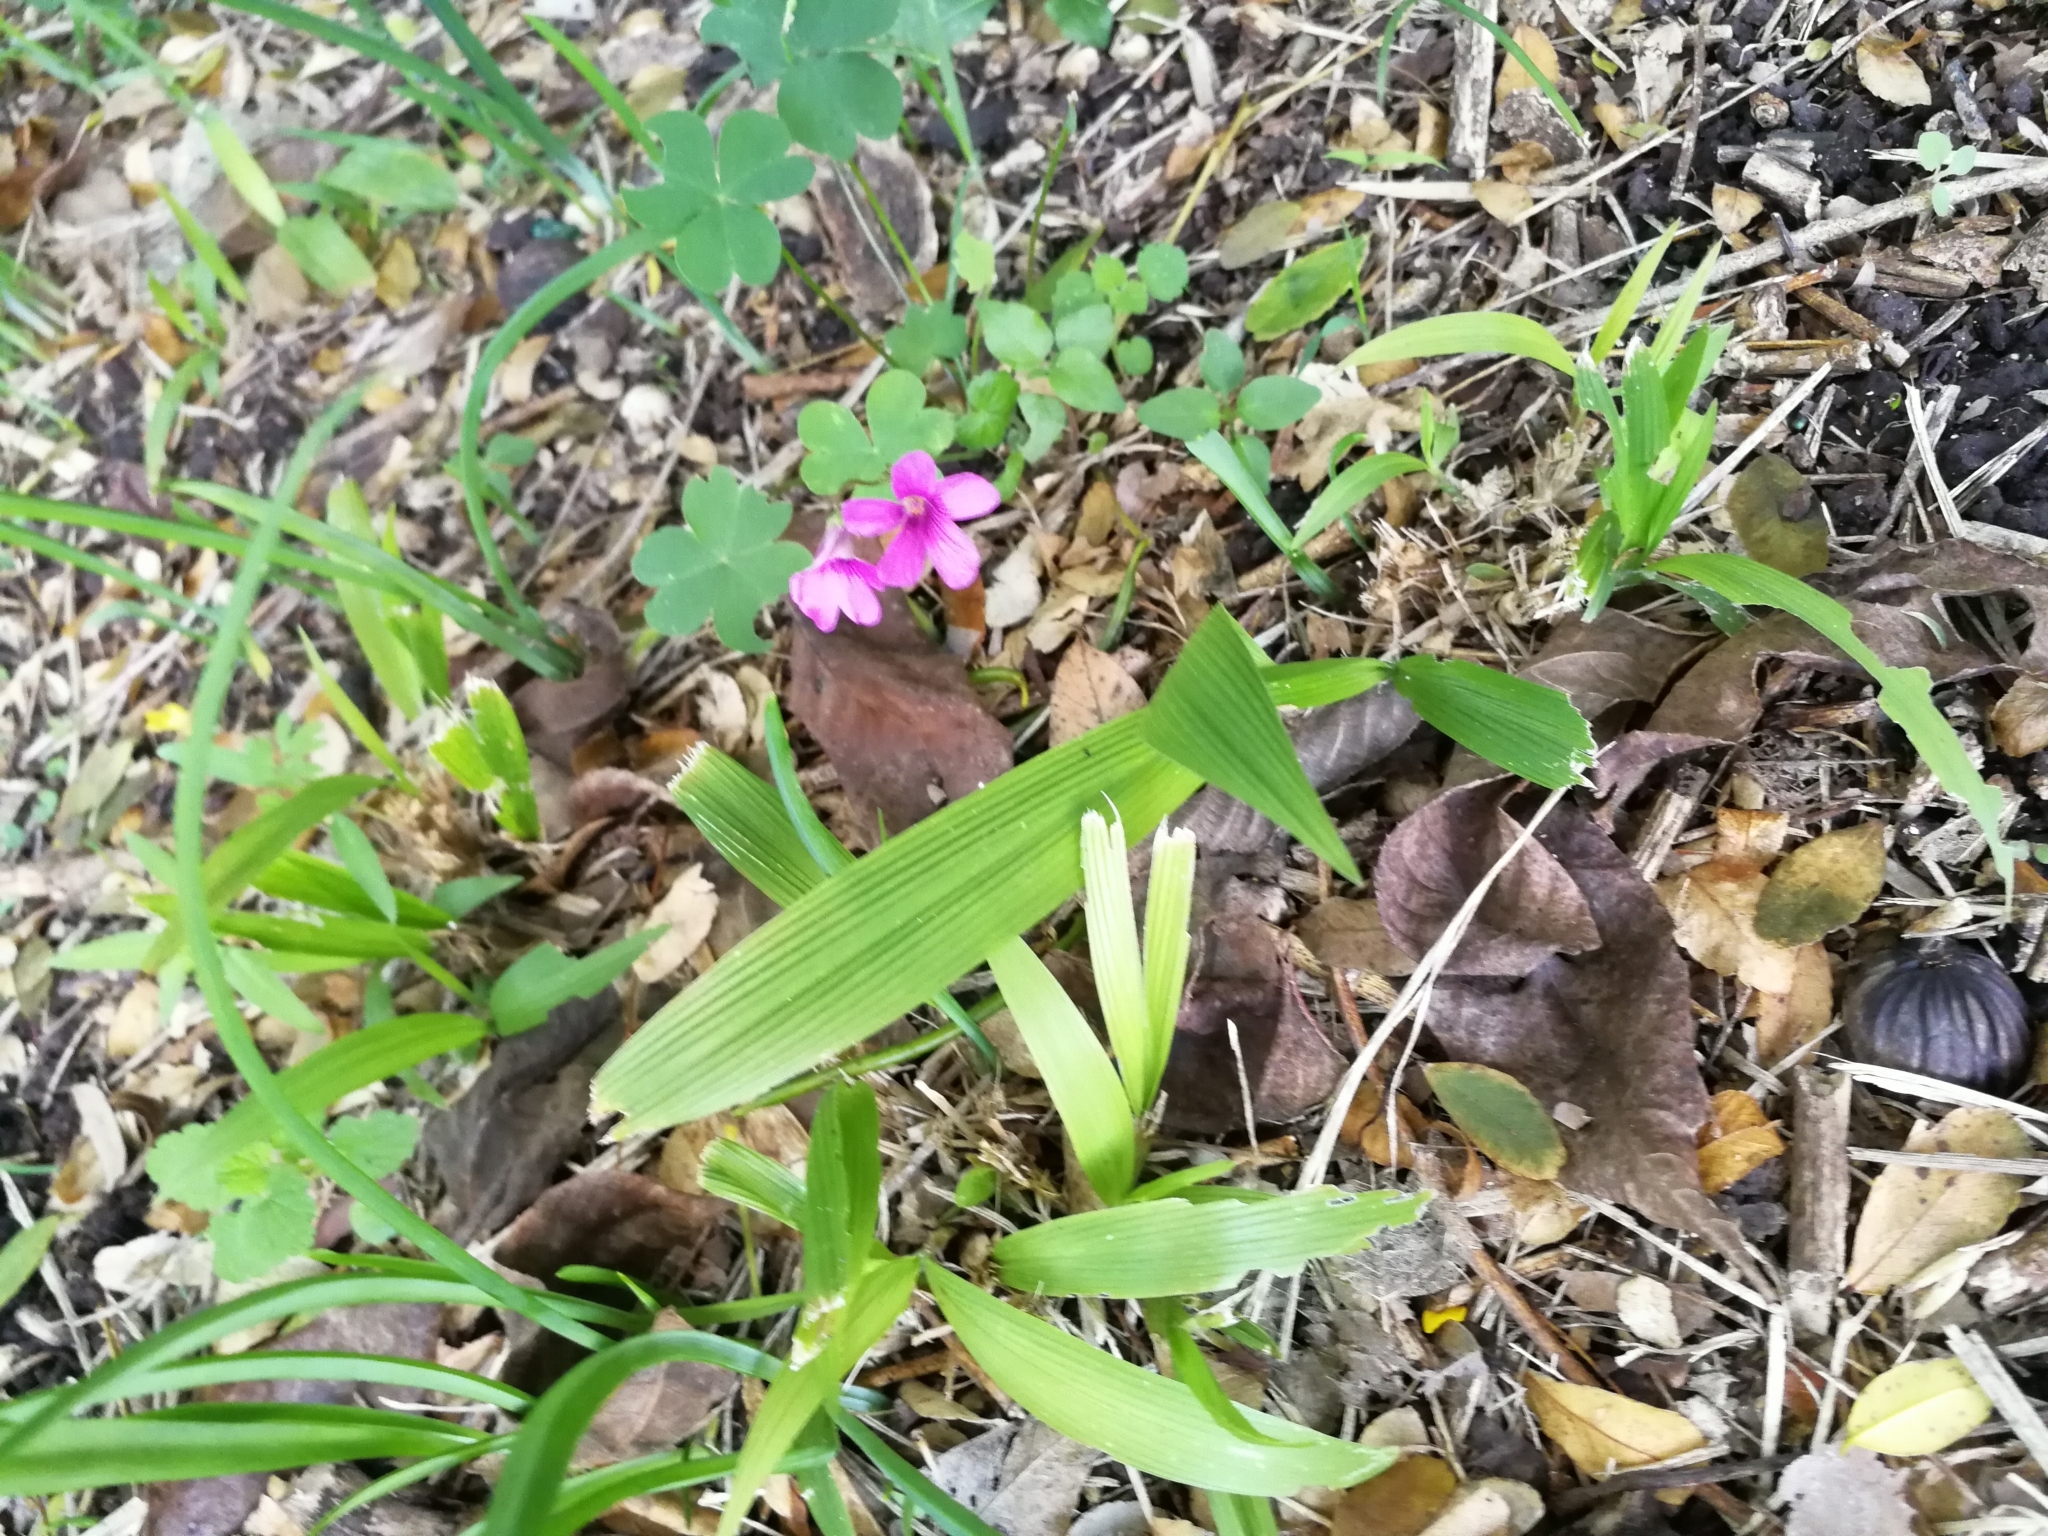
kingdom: Plantae
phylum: Tracheophyta
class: Magnoliopsida
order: Oxalidales
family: Oxalidaceae
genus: Oxalis
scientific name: Oxalis articulata
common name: Pink-sorrel
